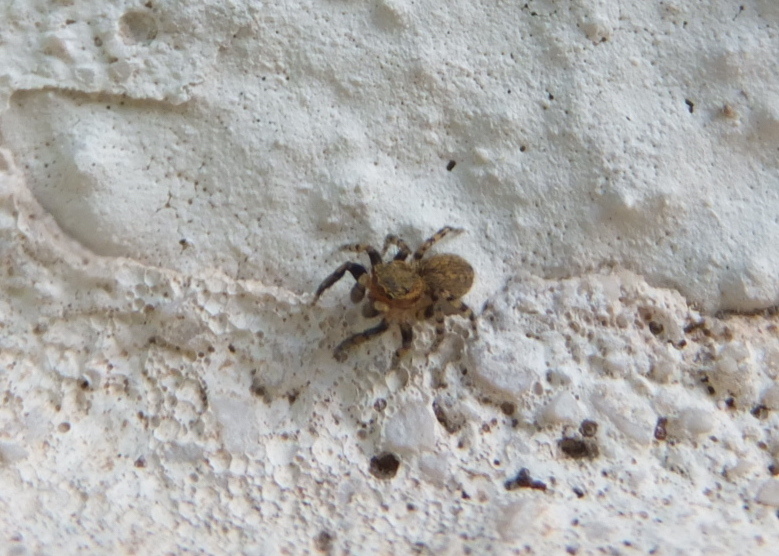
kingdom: Animalia
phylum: Arthropoda
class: Arachnida
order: Araneae
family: Salticidae
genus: Talavera
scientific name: Talavera aequipes
